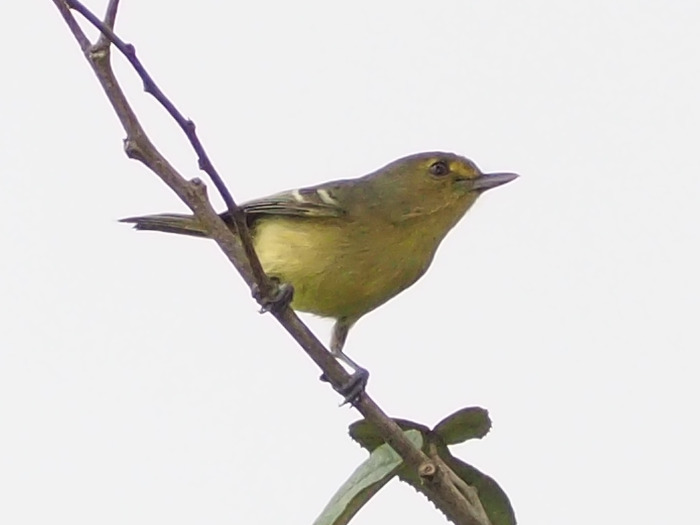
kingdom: Animalia
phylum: Chordata
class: Aves
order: Passeriformes
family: Vireonidae
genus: Vireo
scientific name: Vireo pallens
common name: Mangrove vireo
